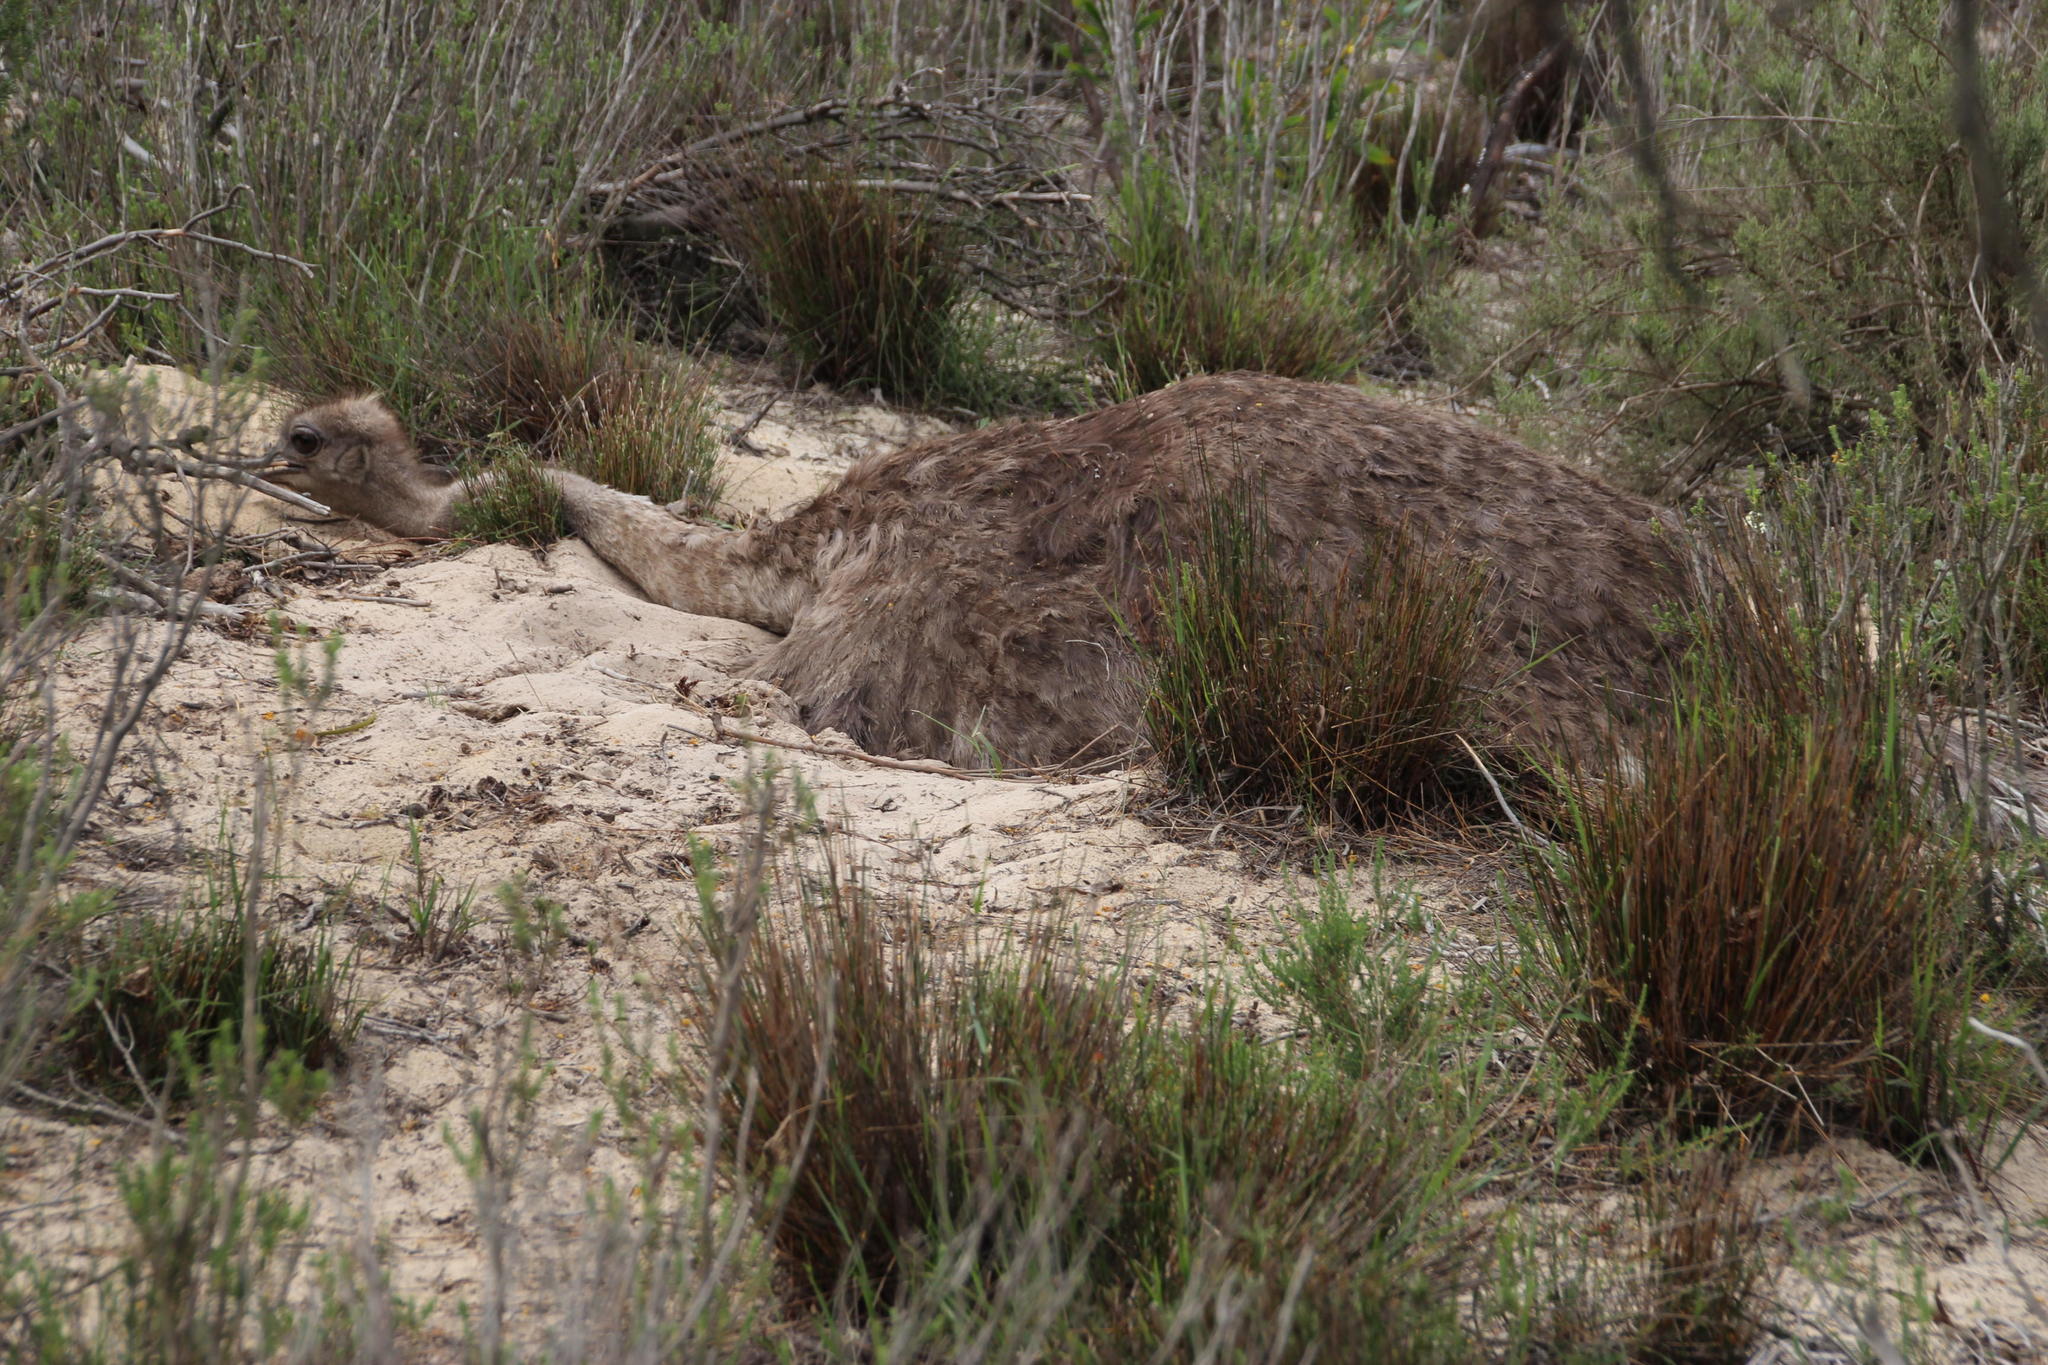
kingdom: Animalia
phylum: Chordata
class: Aves
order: Struthioniformes
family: Struthionidae
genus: Struthio
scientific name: Struthio camelus
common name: Common ostrich
